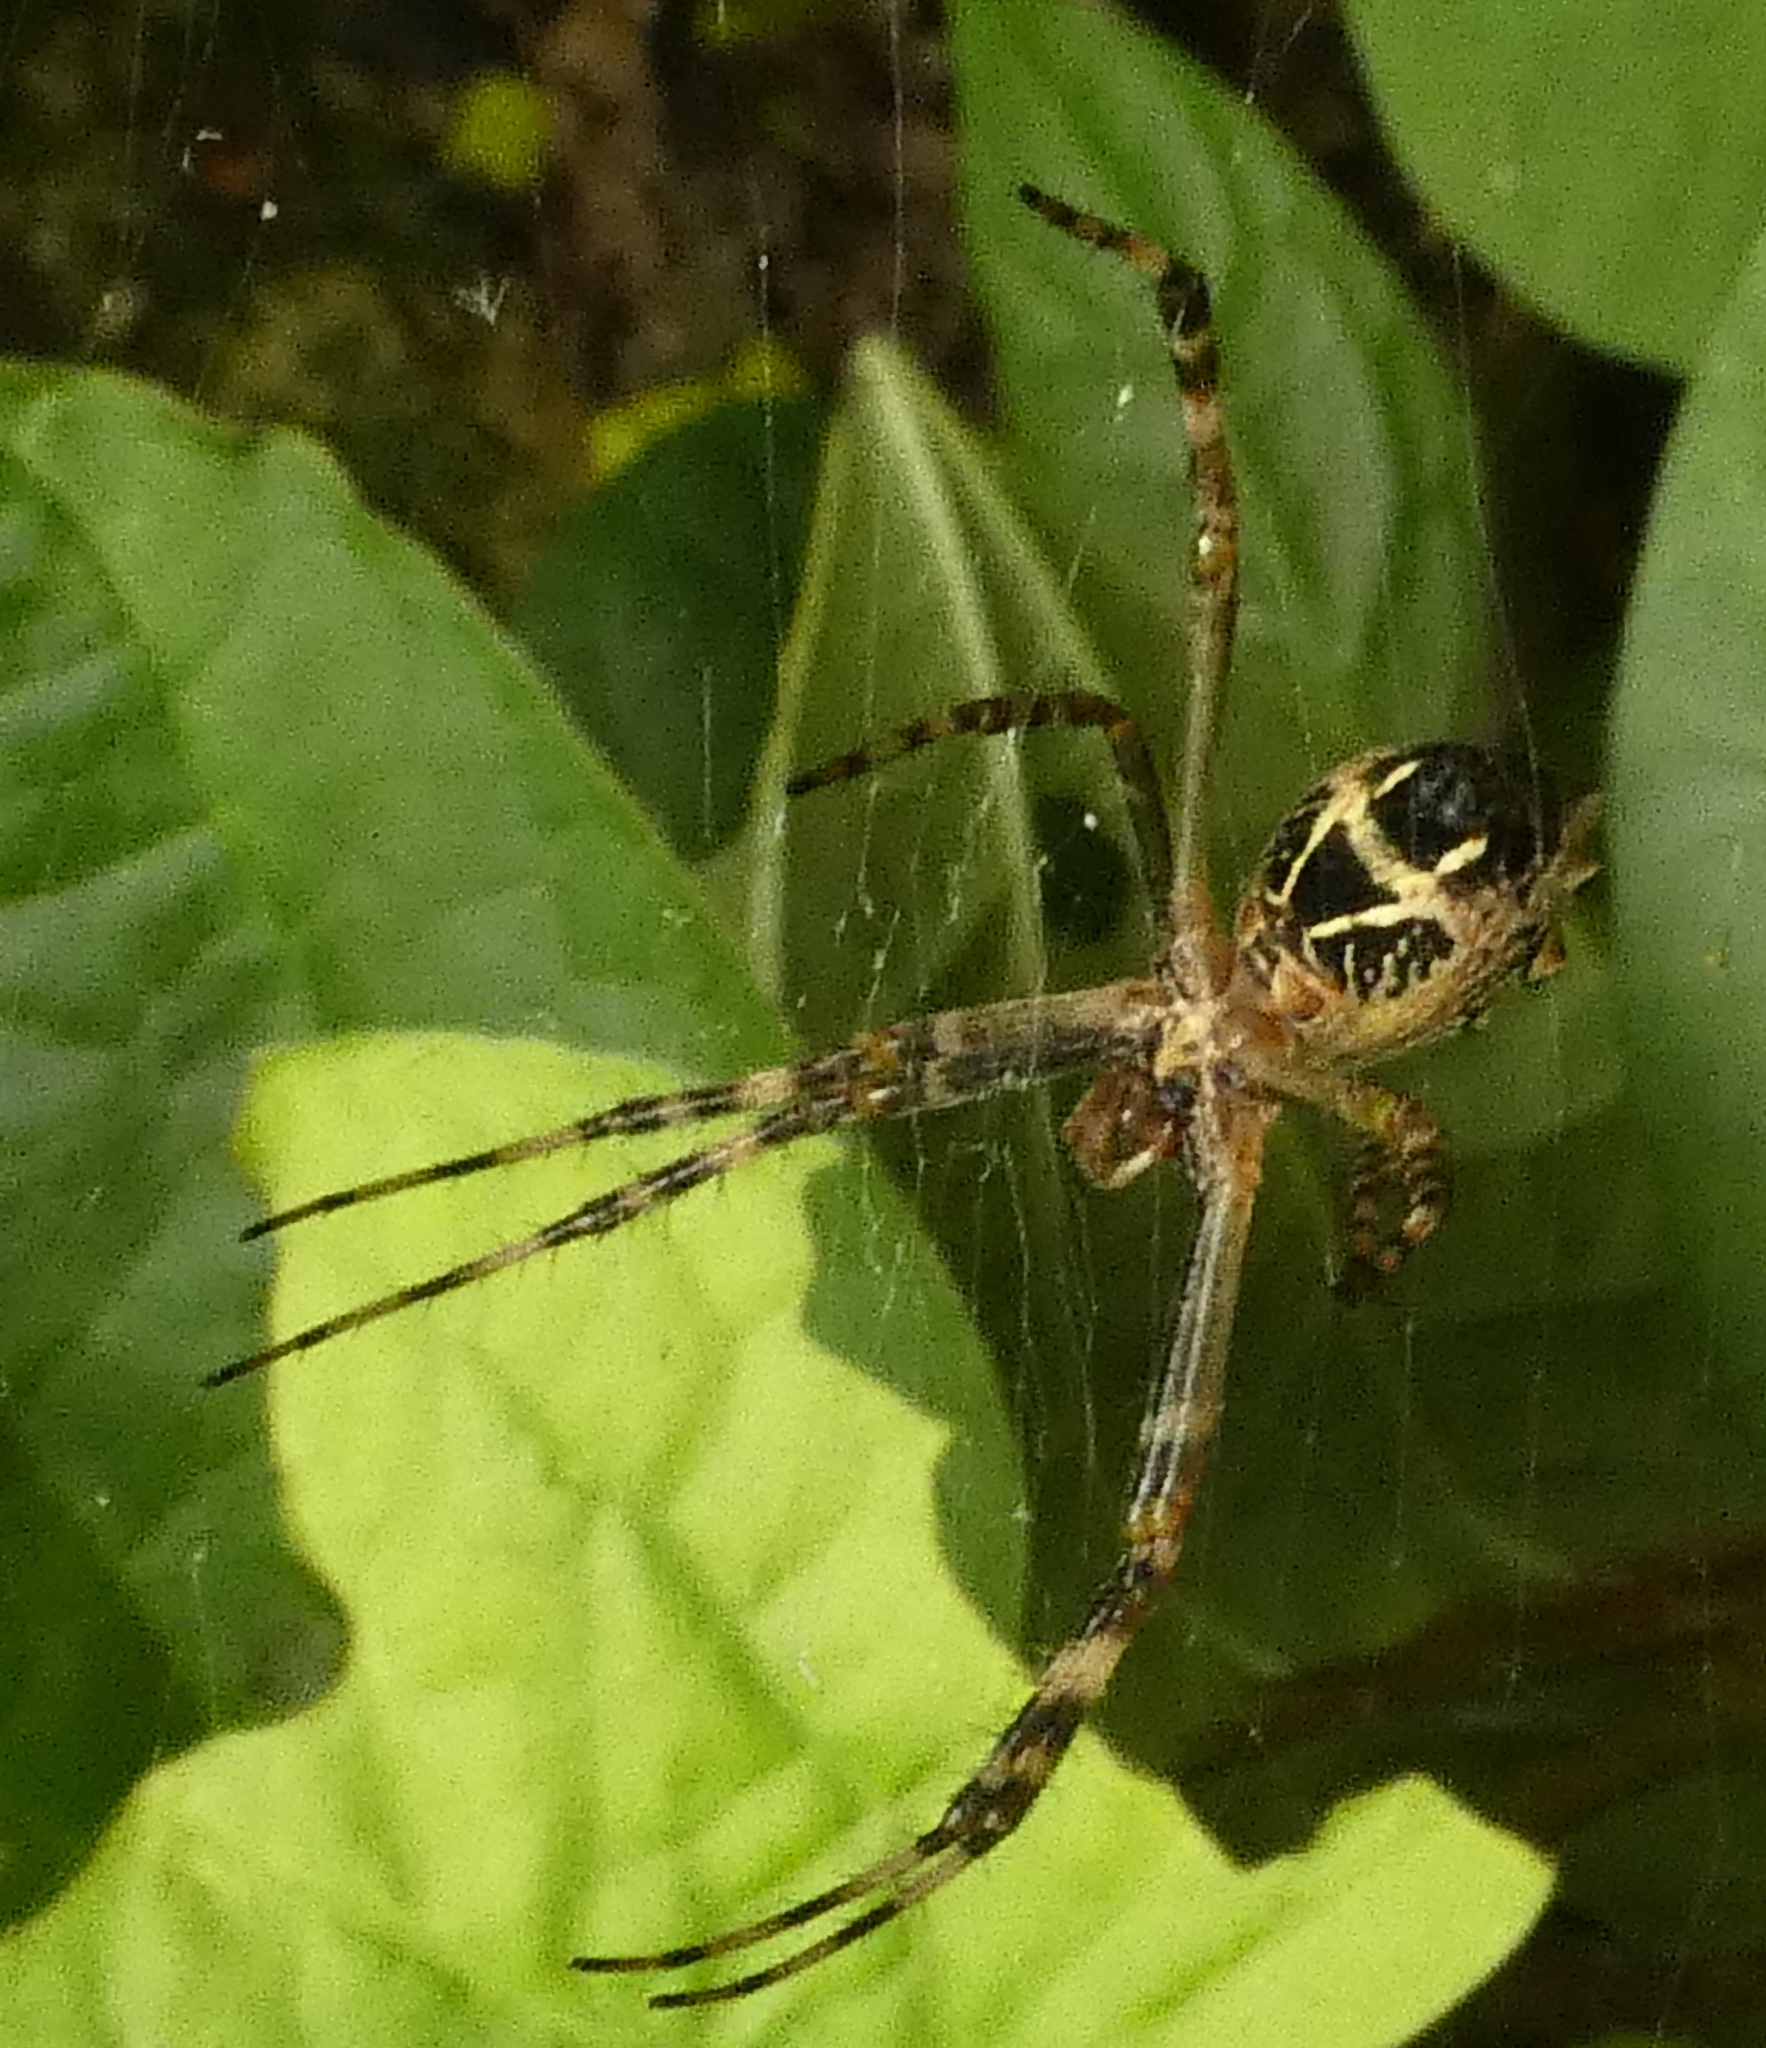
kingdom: Animalia
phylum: Arthropoda
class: Arachnida
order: Araneae
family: Araneidae
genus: Argiope
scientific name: Argiope argentata
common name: Orb weavers
